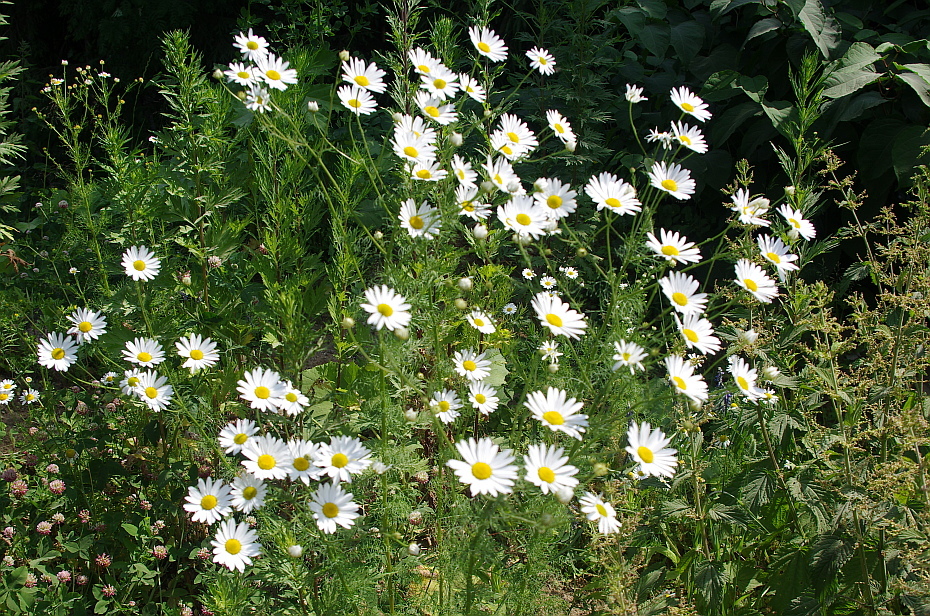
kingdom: Plantae
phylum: Tracheophyta
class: Magnoliopsida
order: Asterales
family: Asteraceae
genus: Tripleurospermum
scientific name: Tripleurospermum inodorum
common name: Scentless mayweed
